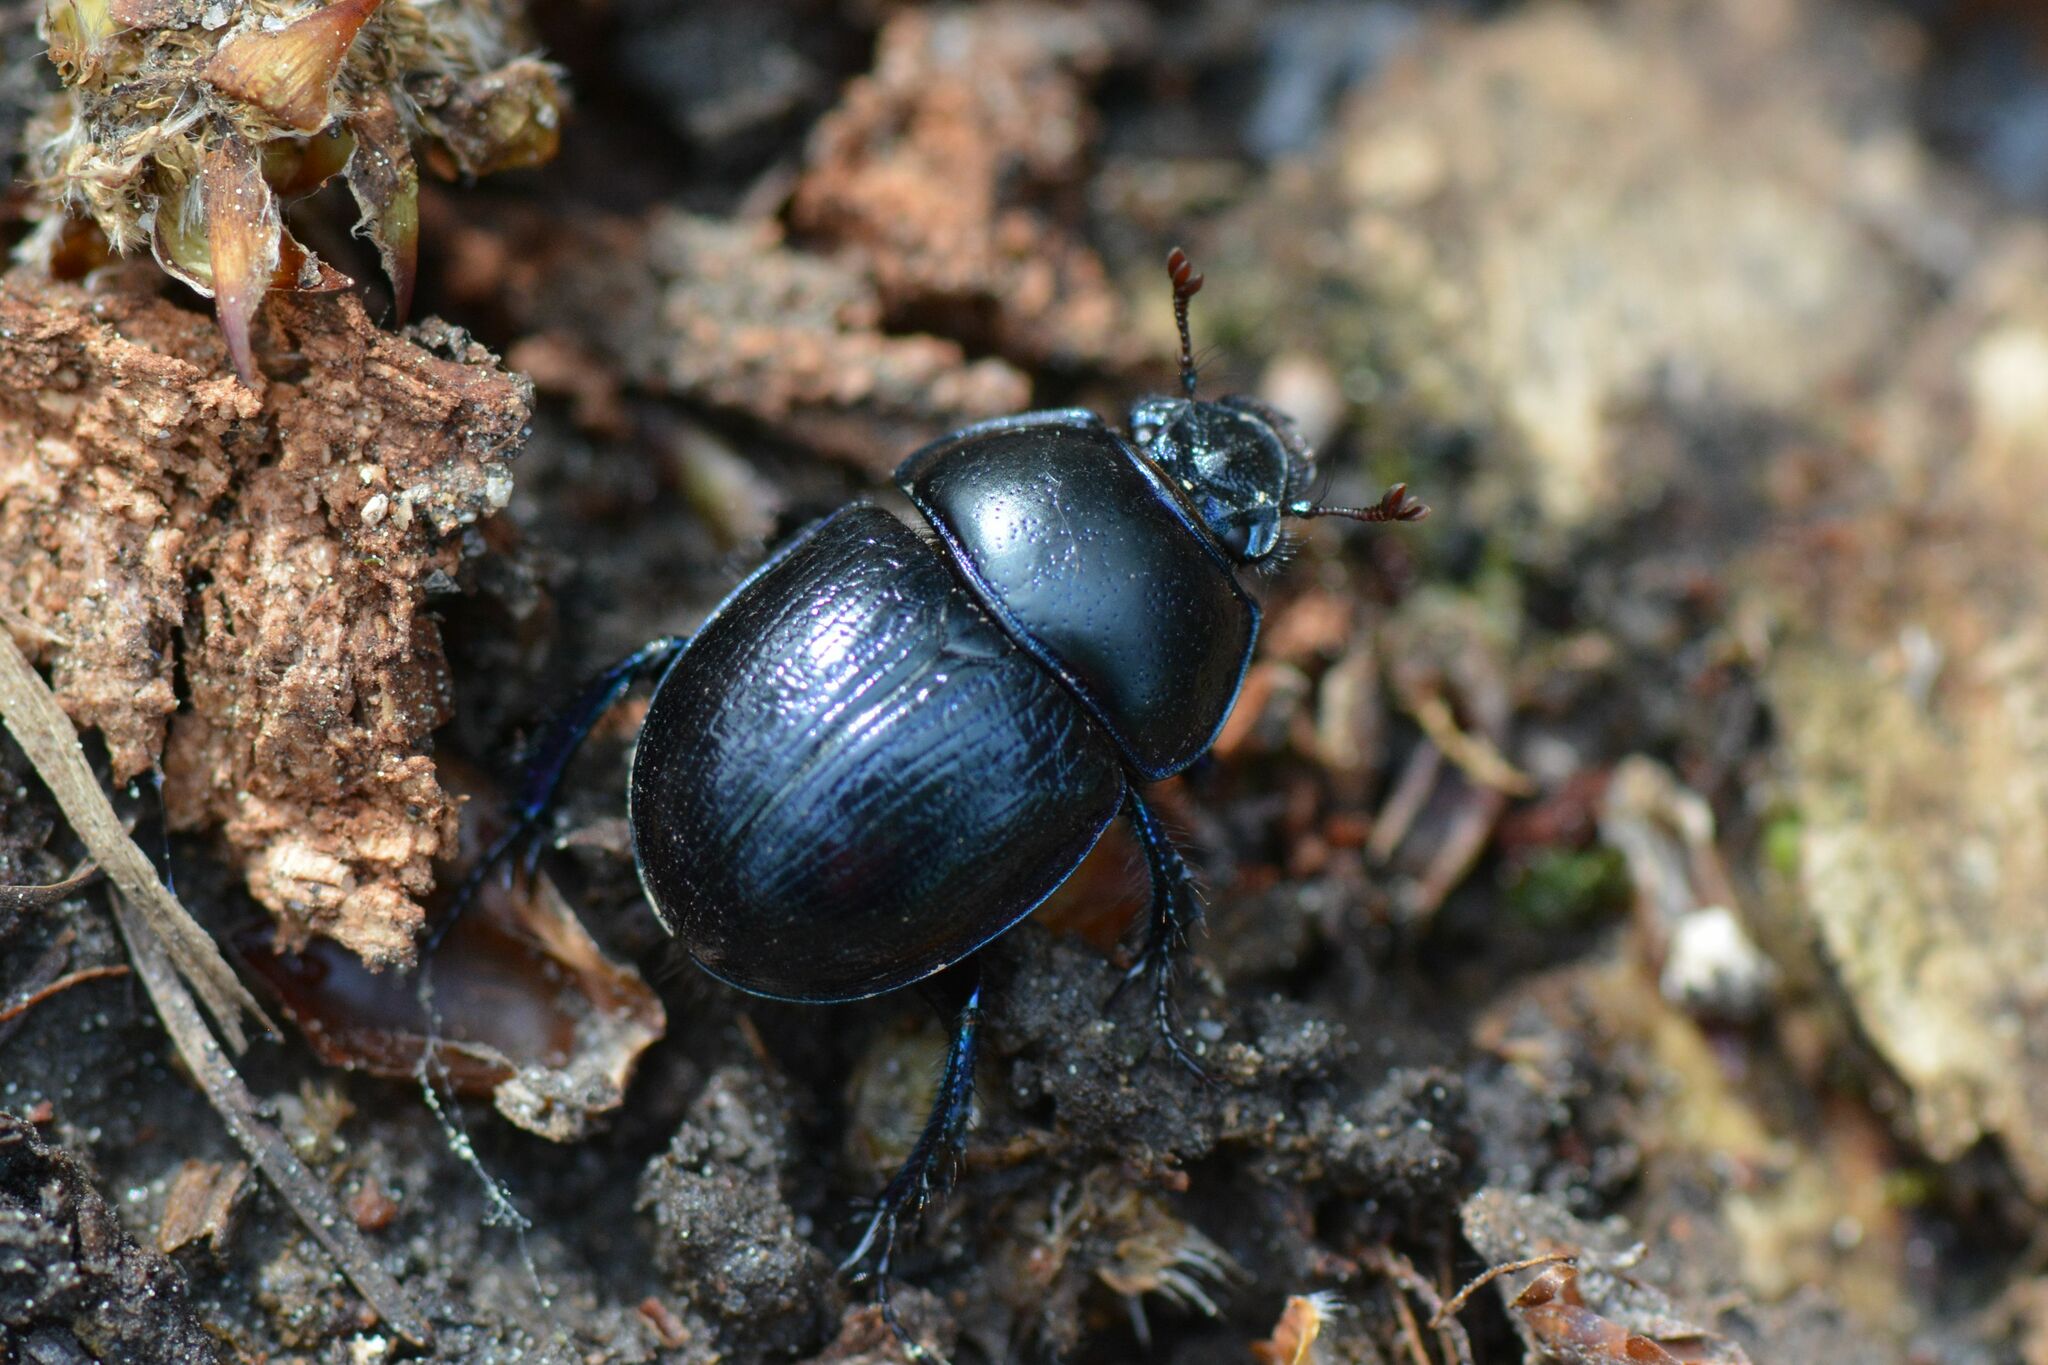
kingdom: Animalia
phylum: Arthropoda
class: Insecta
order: Coleoptera
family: Geotrupidae
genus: Anoplotrupes
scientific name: Anoplotrupes stercorosus
